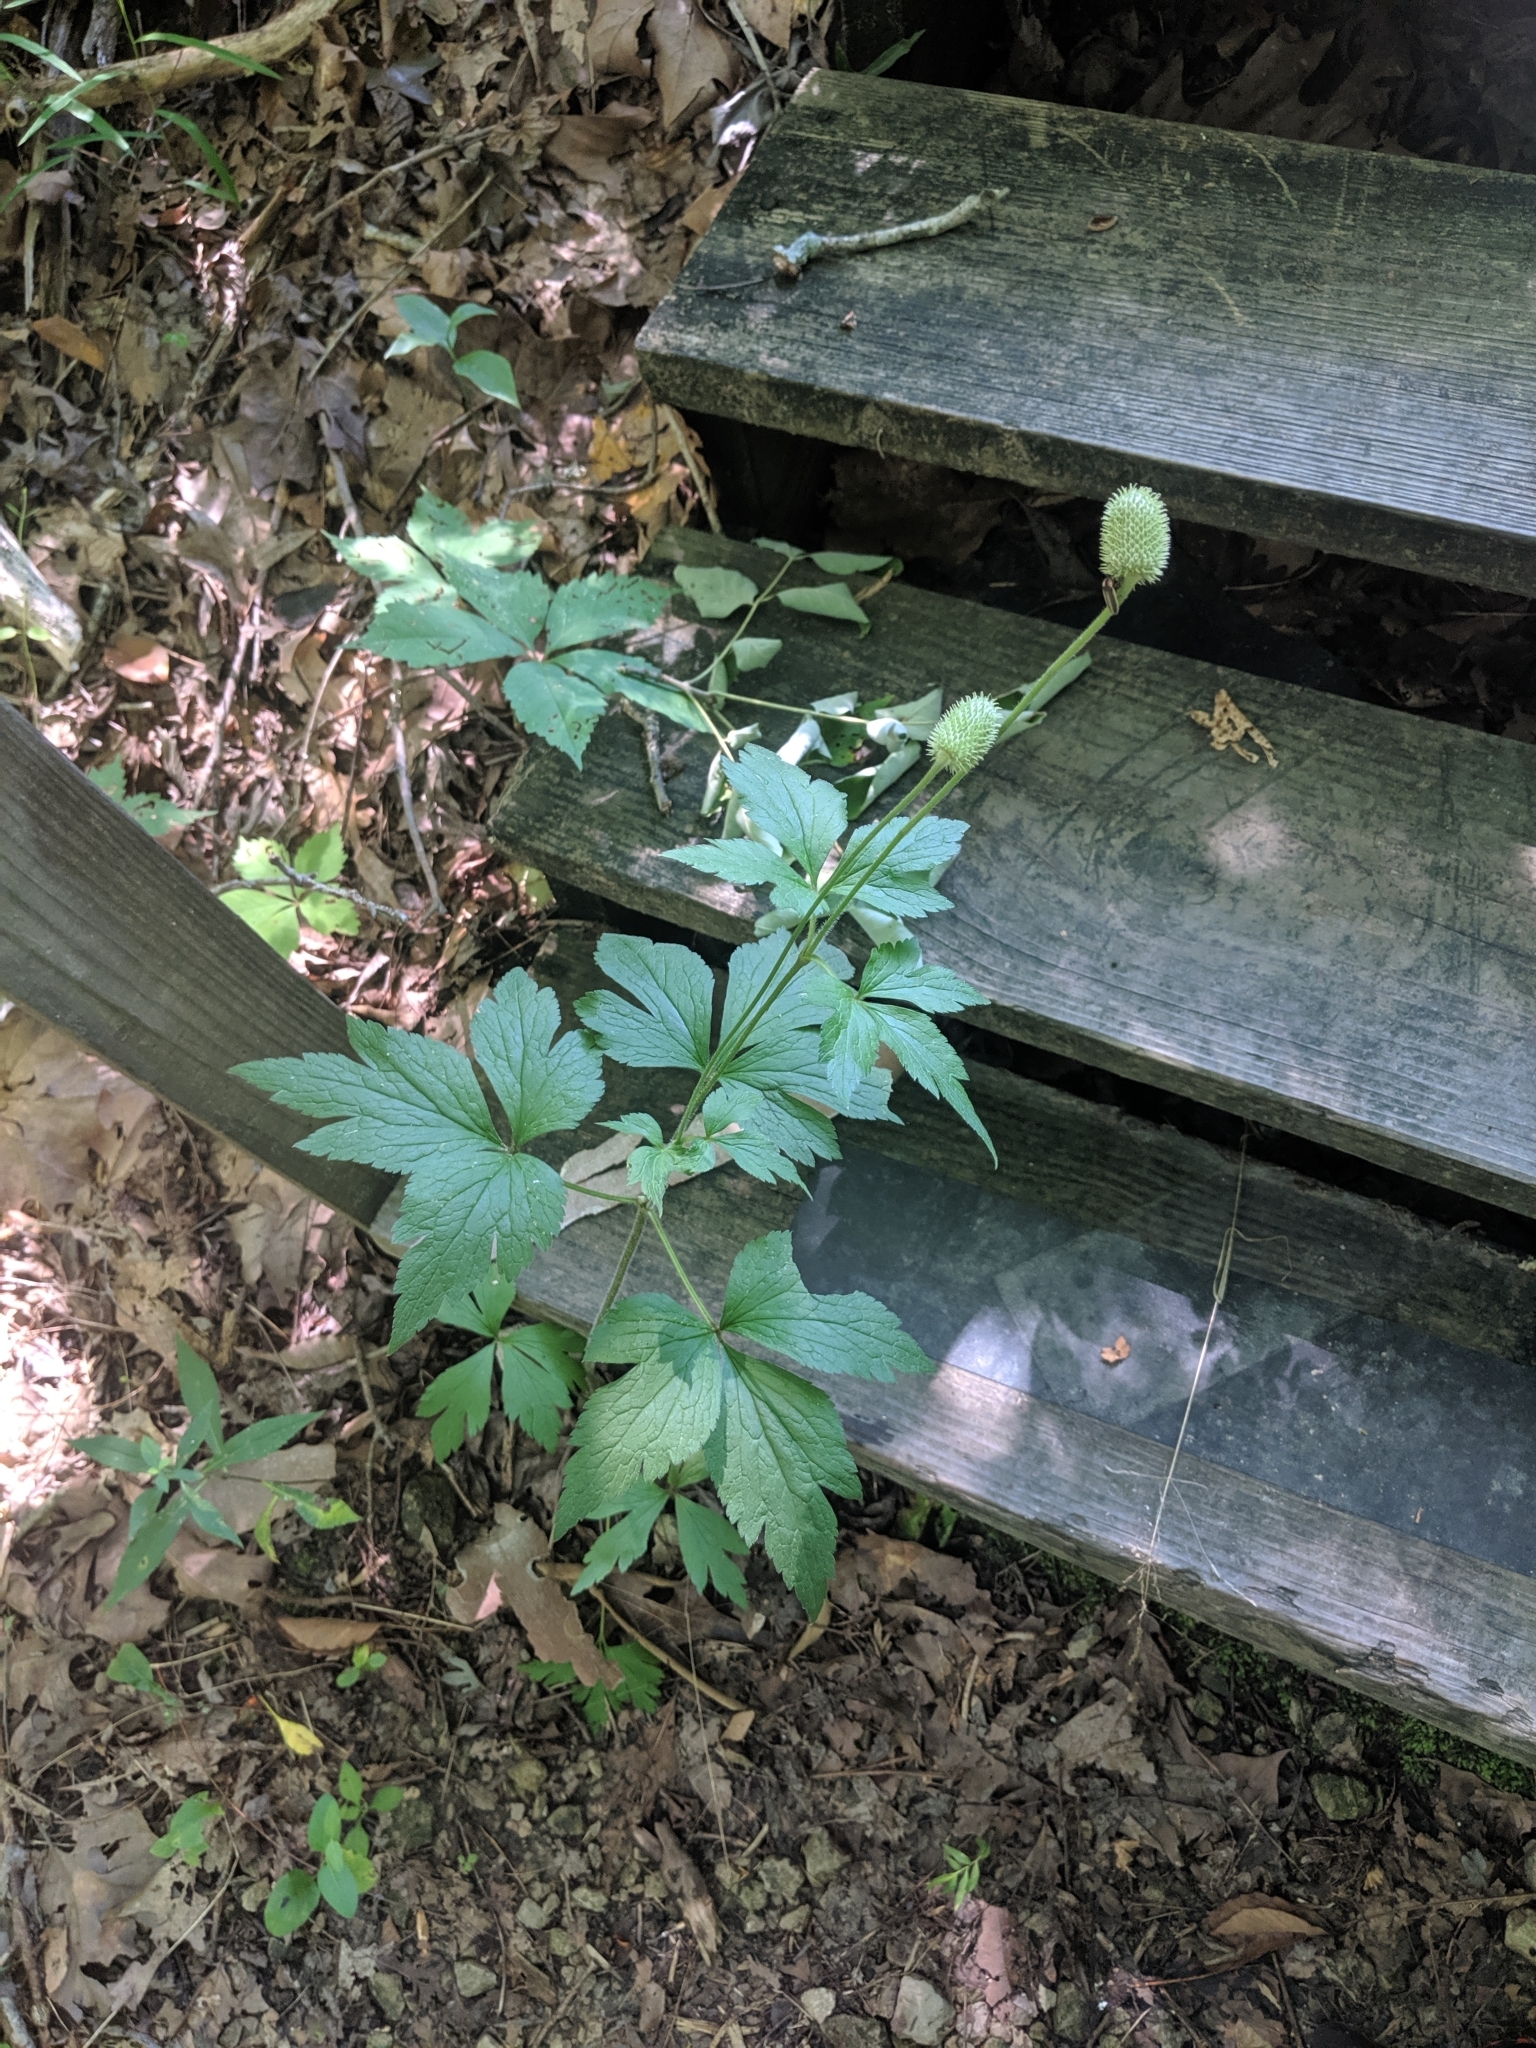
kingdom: Plantae
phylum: Tracheophyta
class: Magnoliopsida
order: Ranunculales
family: Ranunculaceae
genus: Anemone
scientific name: Anemone virginiana
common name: Tall anemone
